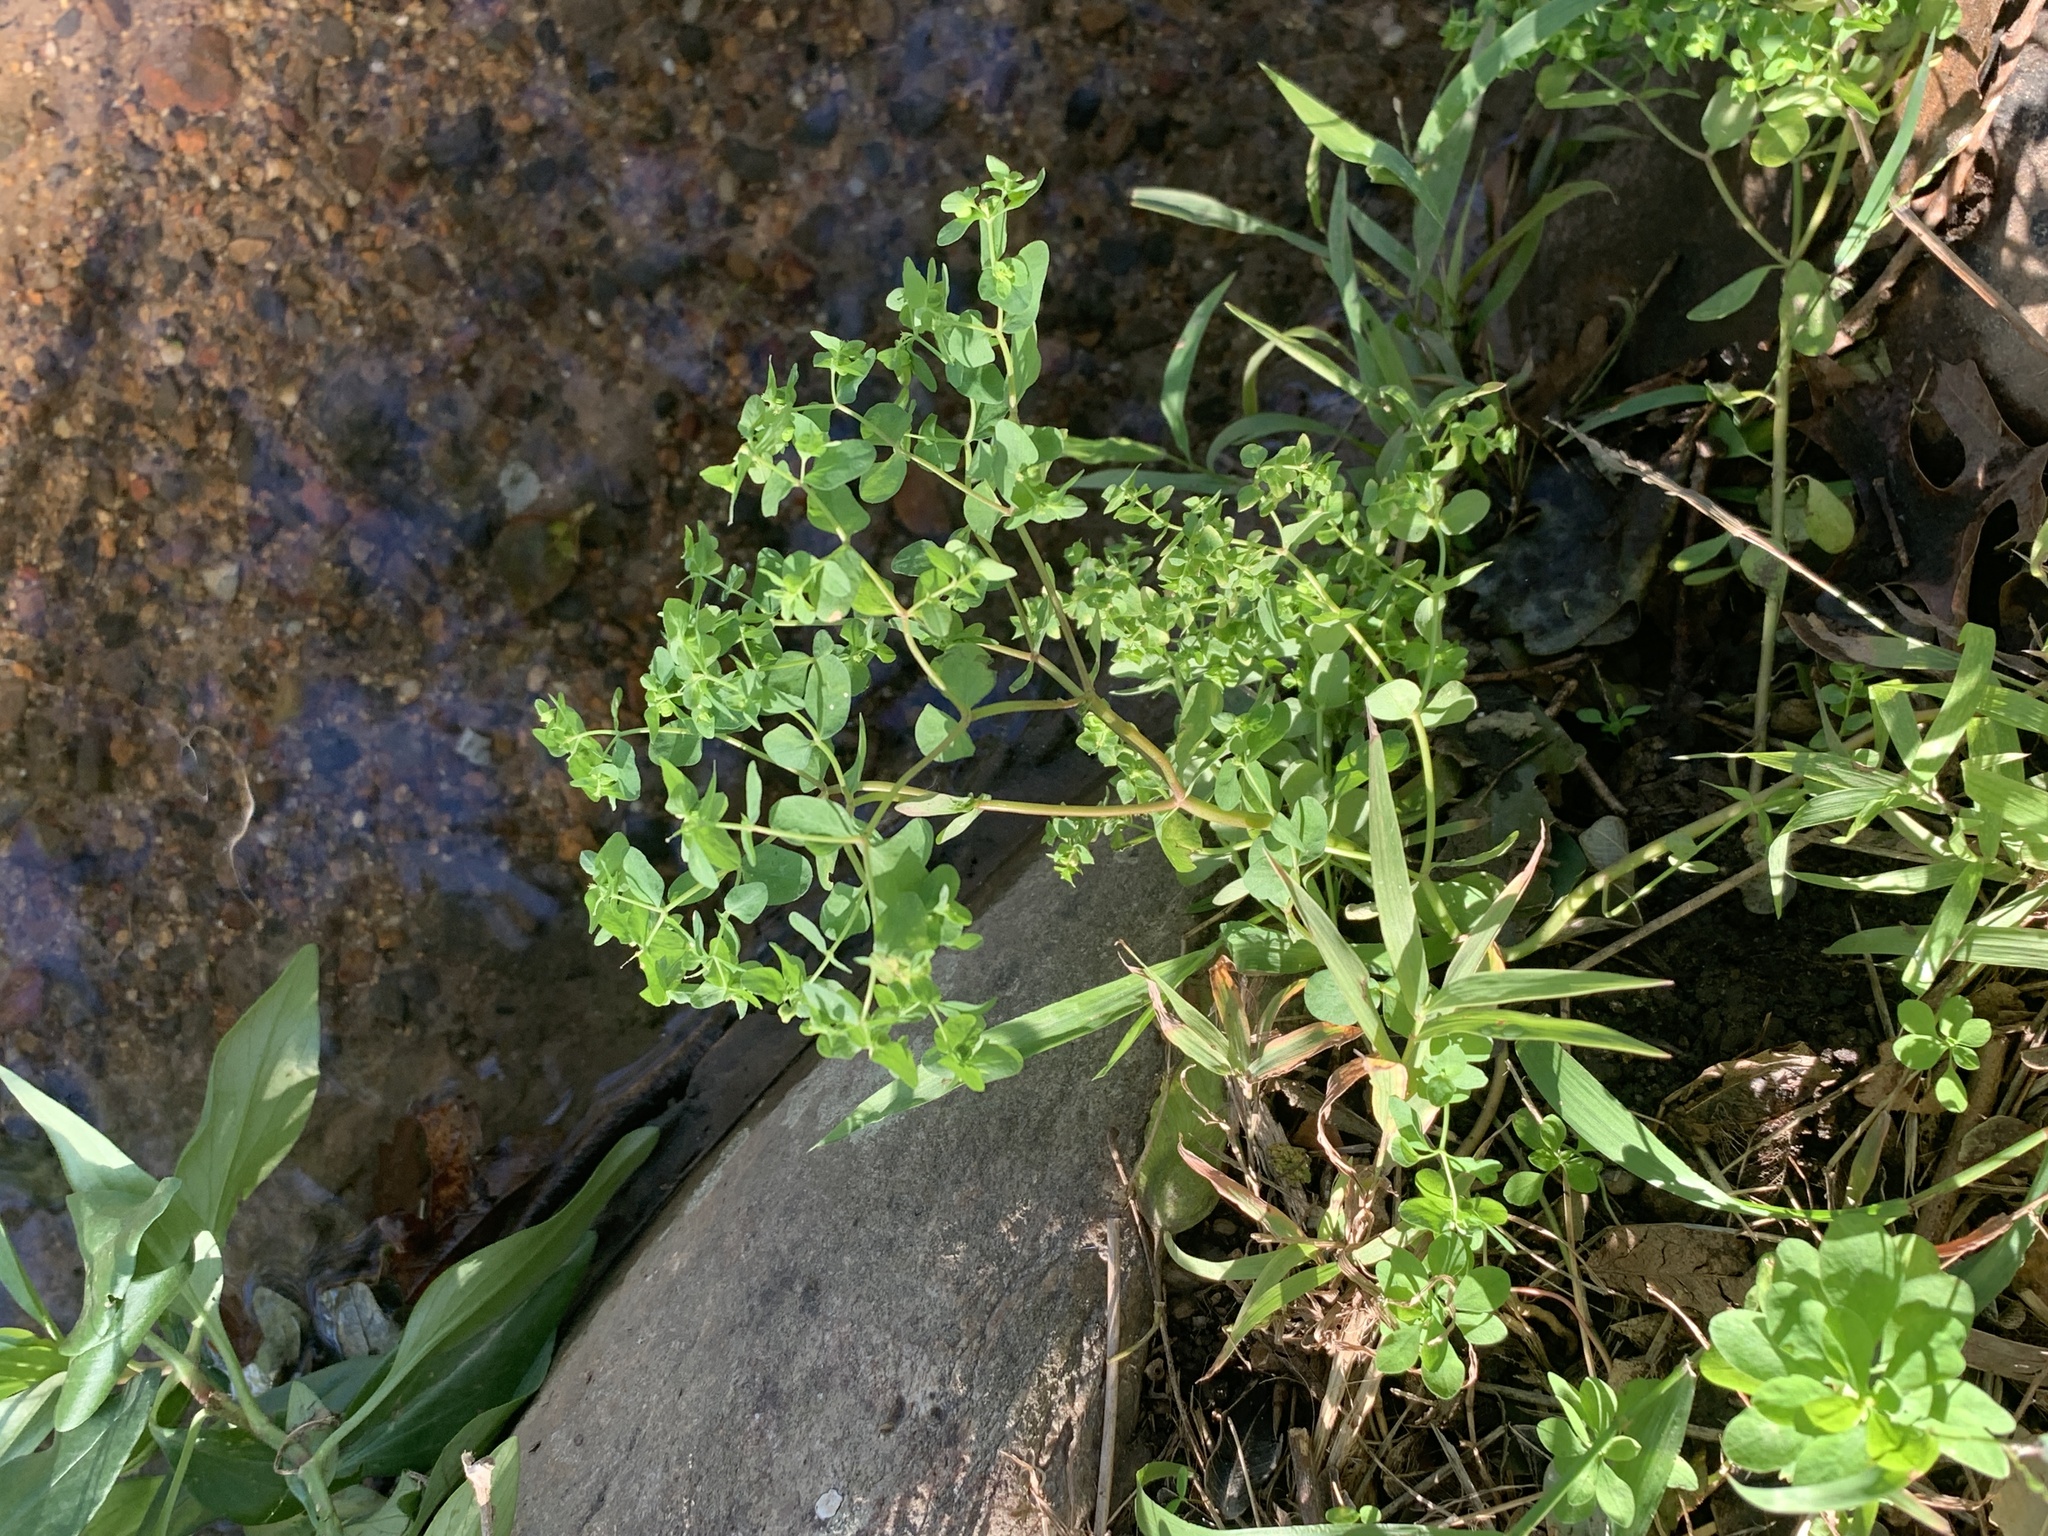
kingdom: Plantae
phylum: Tracheophyta
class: Magnoliopsida
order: Malpighiales
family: Euphorbiaceae
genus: Euphorbia
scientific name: Euphorbia peplus
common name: Petty spurge
